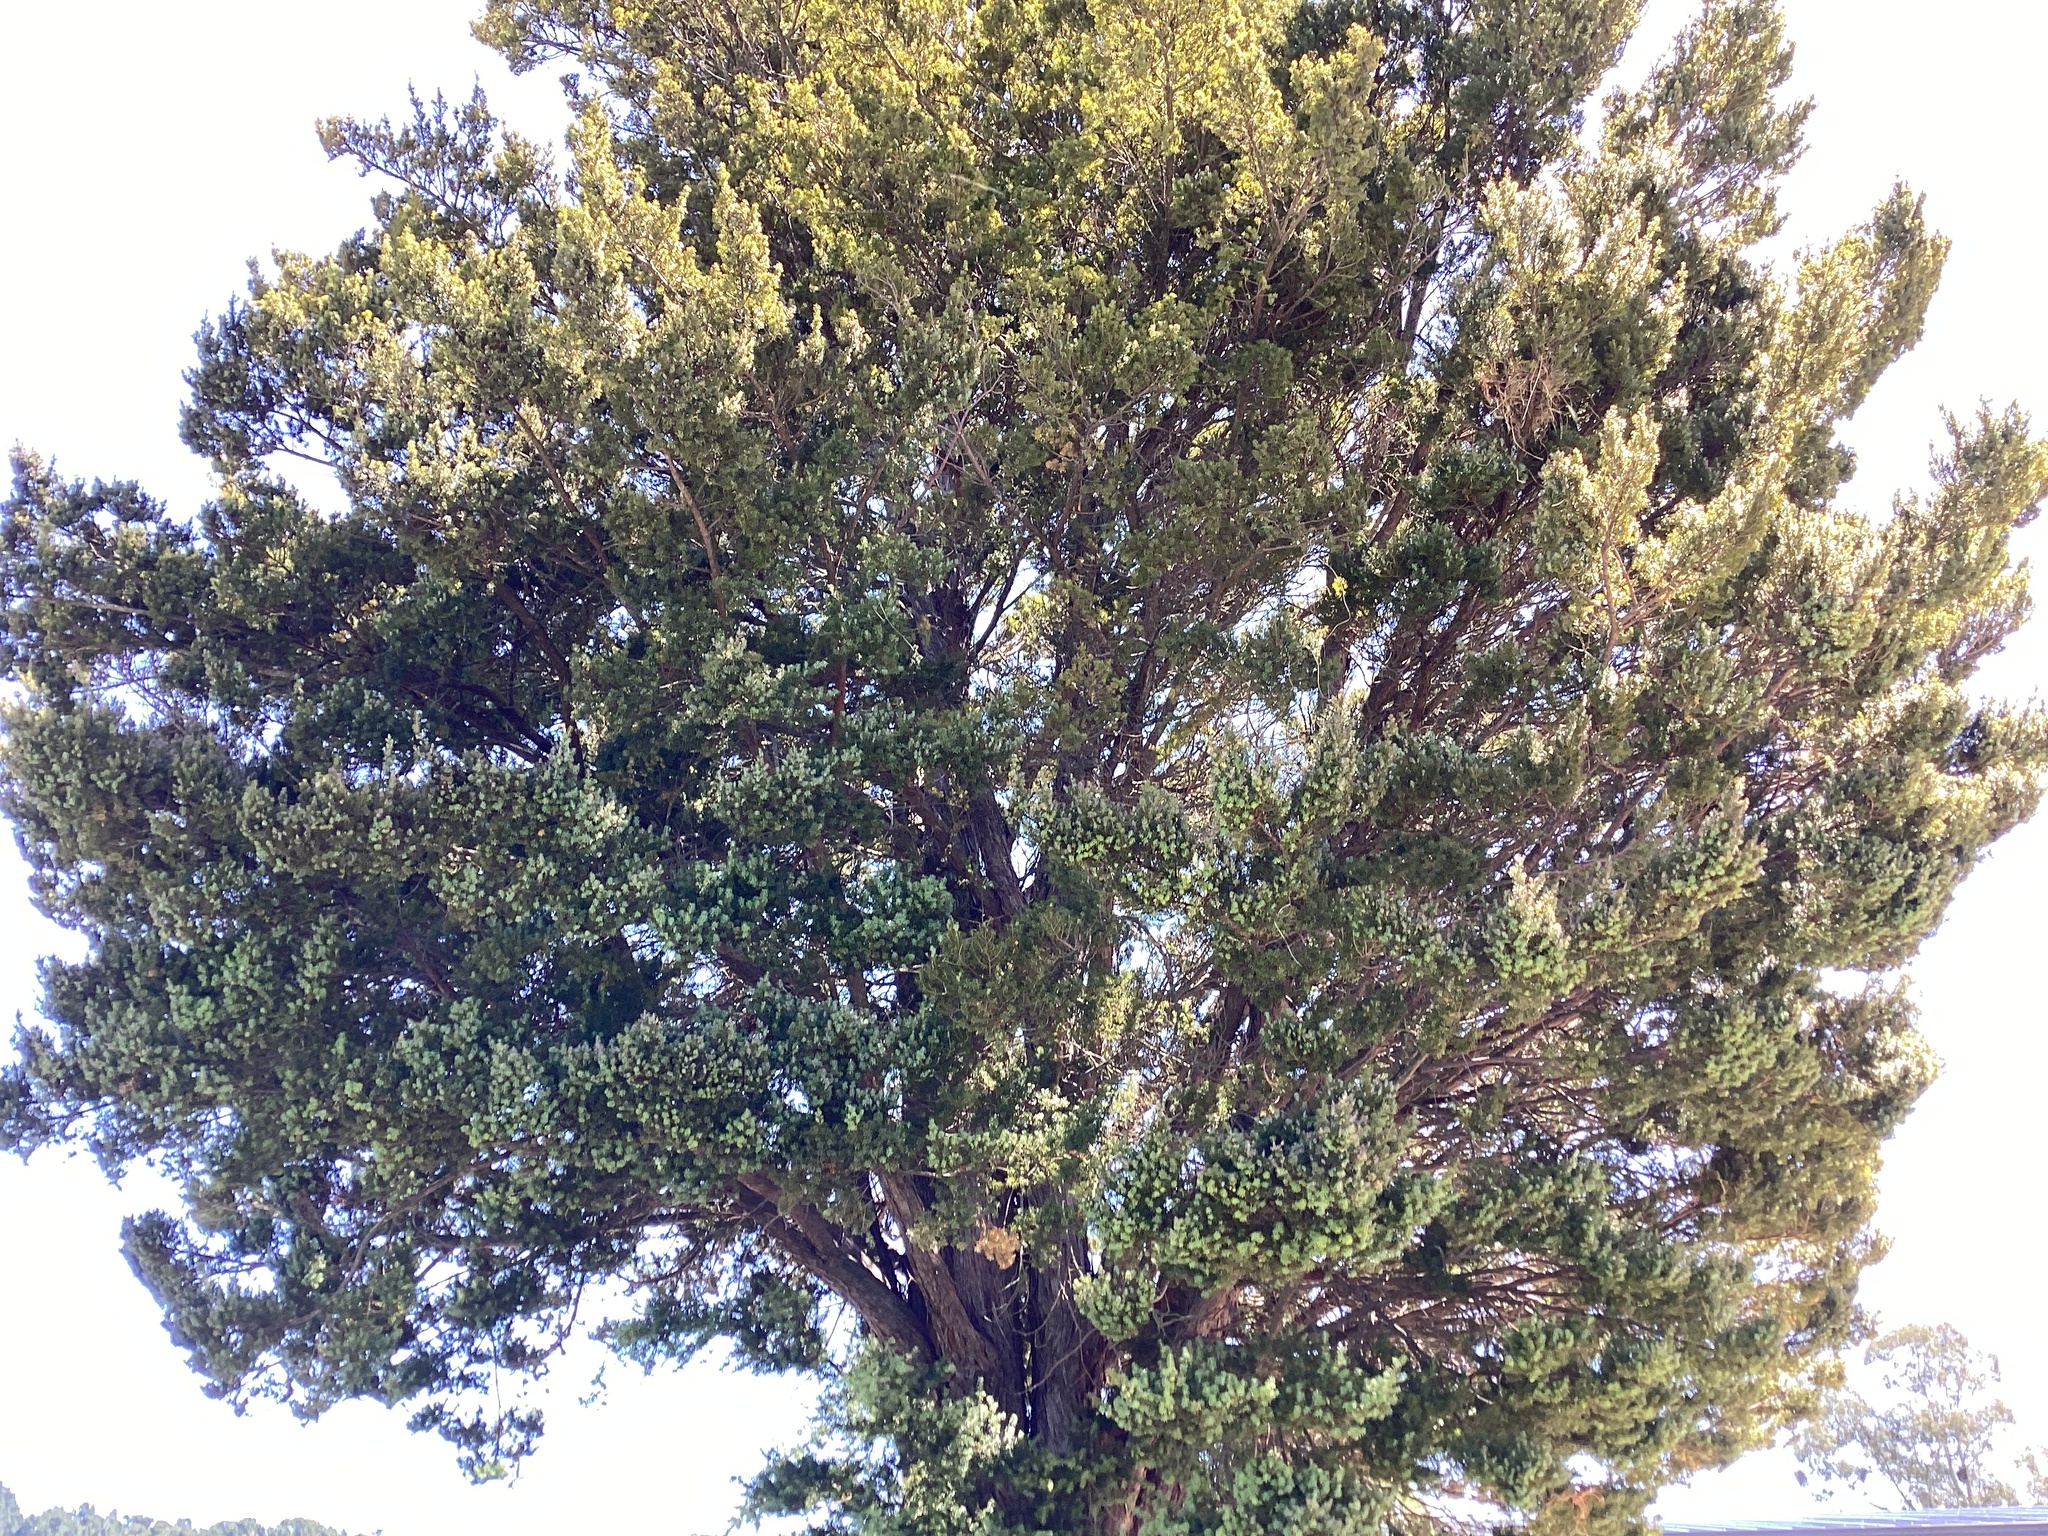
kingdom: Plantae
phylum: Tracheophyta
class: Pinopsida
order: Pinales
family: Podocarpaceae
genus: Podocarpus
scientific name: Podocarpus totara
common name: Totara
